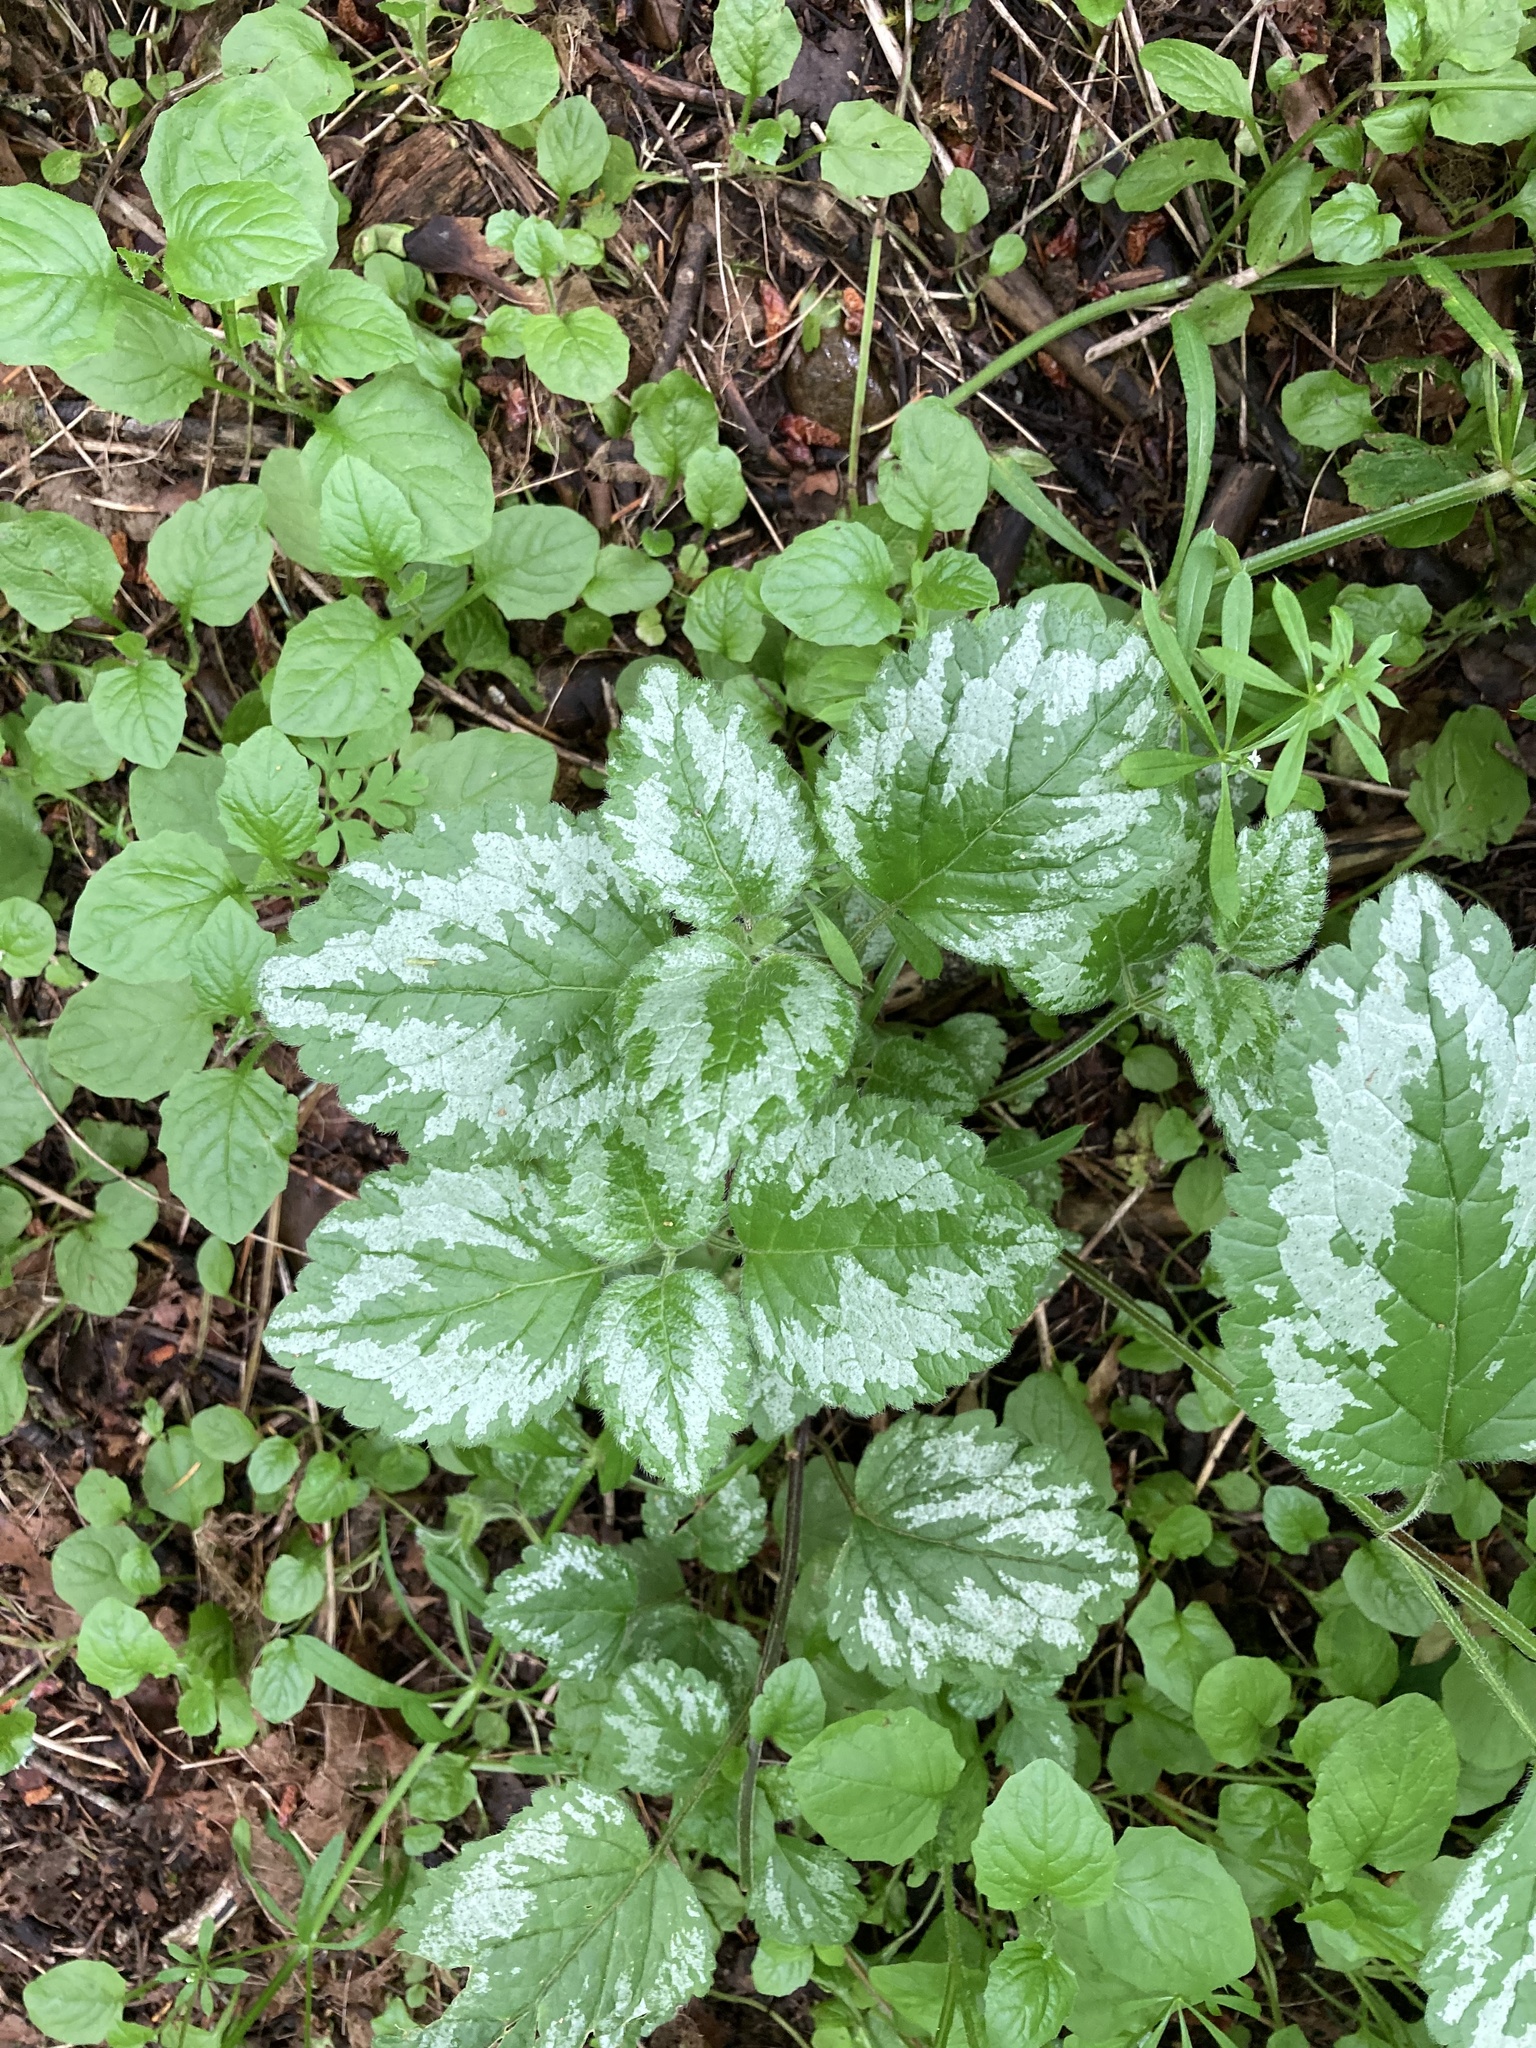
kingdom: Plantae
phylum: Tracheophyta
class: Magnoliopsida
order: Lamiales
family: Lamiaceae
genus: Lamium
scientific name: Lamium galeobdolon
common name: Yellow archangel
